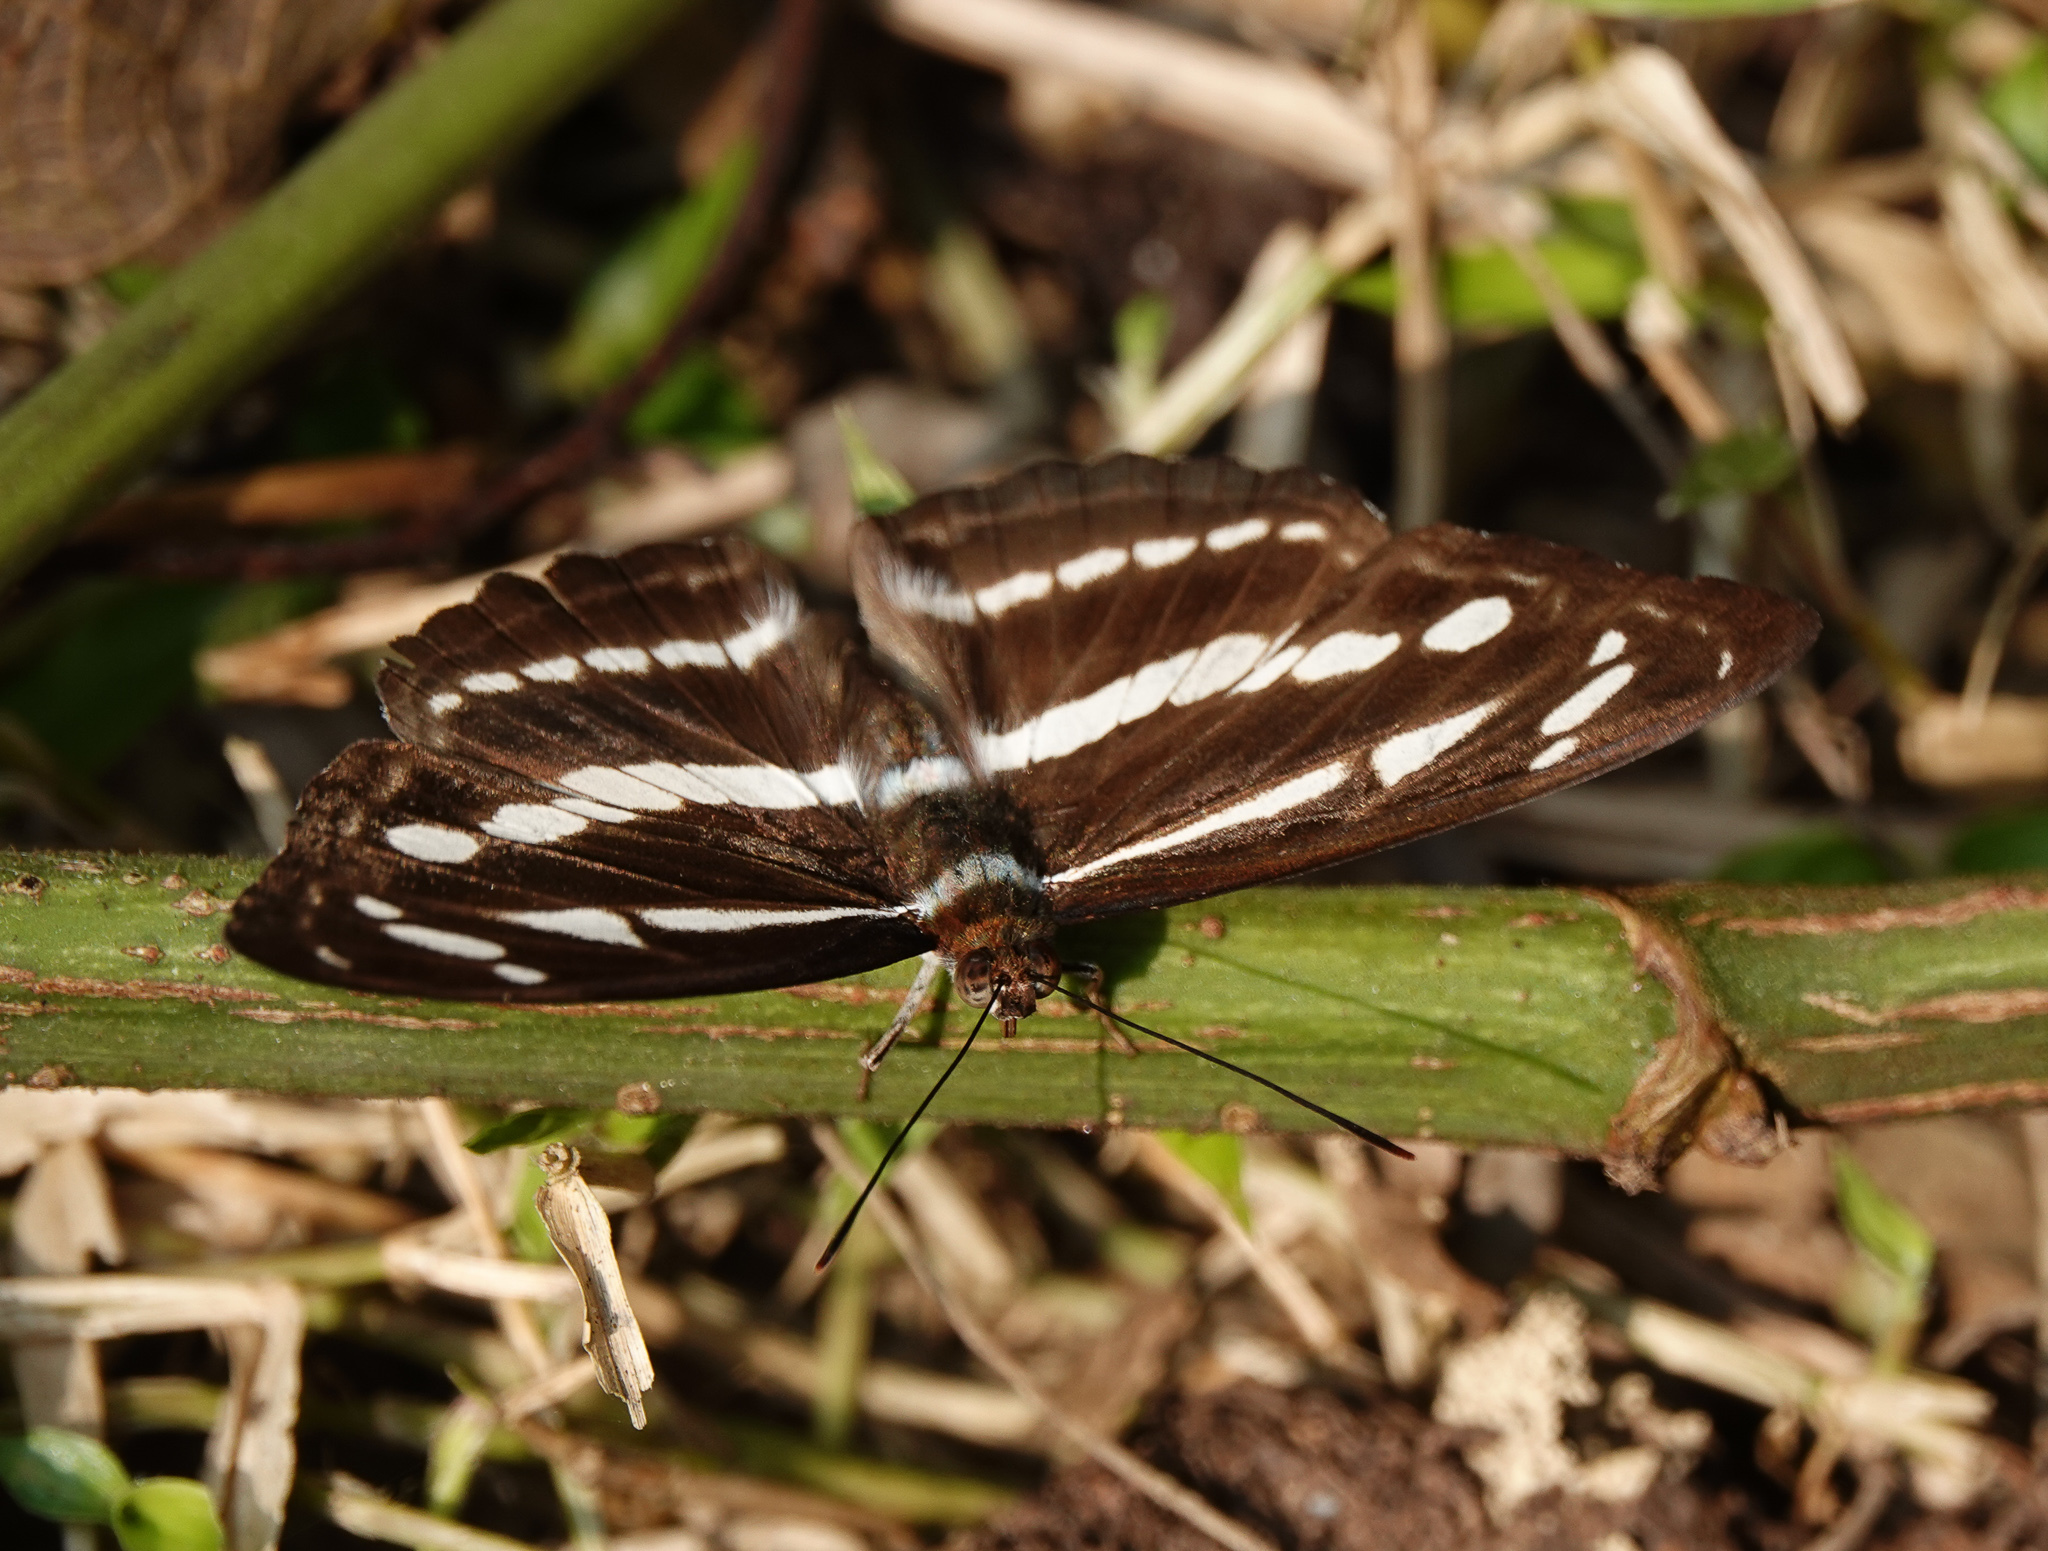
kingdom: Animalia
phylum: Arthropoda
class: Insecta
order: Lepidoptera
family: Nymphalidae
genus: Neptis
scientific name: Neptis clinia
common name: Southern sullied sailer
